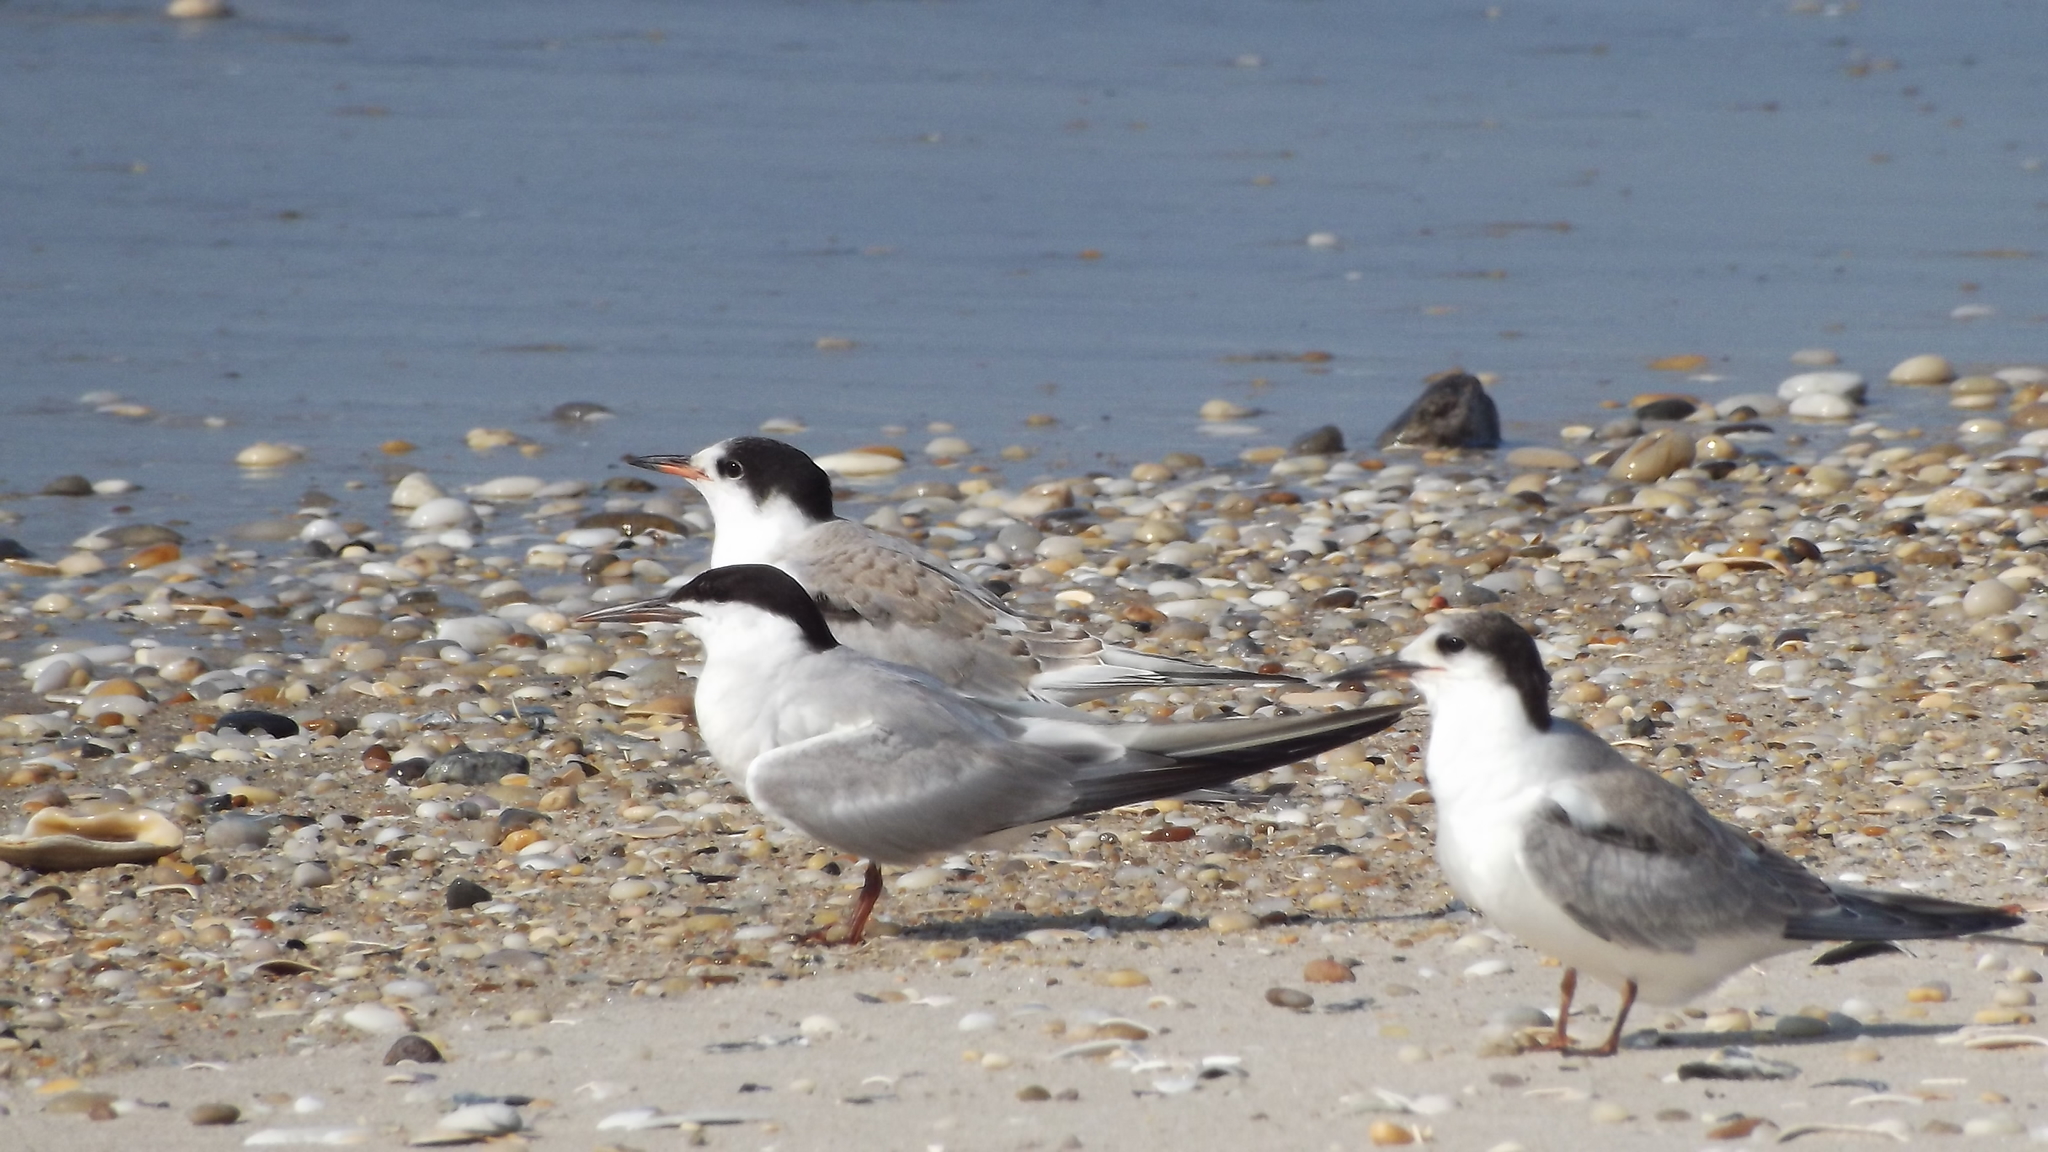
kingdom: Animalia
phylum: Chordata
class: Aves
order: Charadriiformes
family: Laridae
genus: Sterna
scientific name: Sterna hirundo
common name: Common tern
